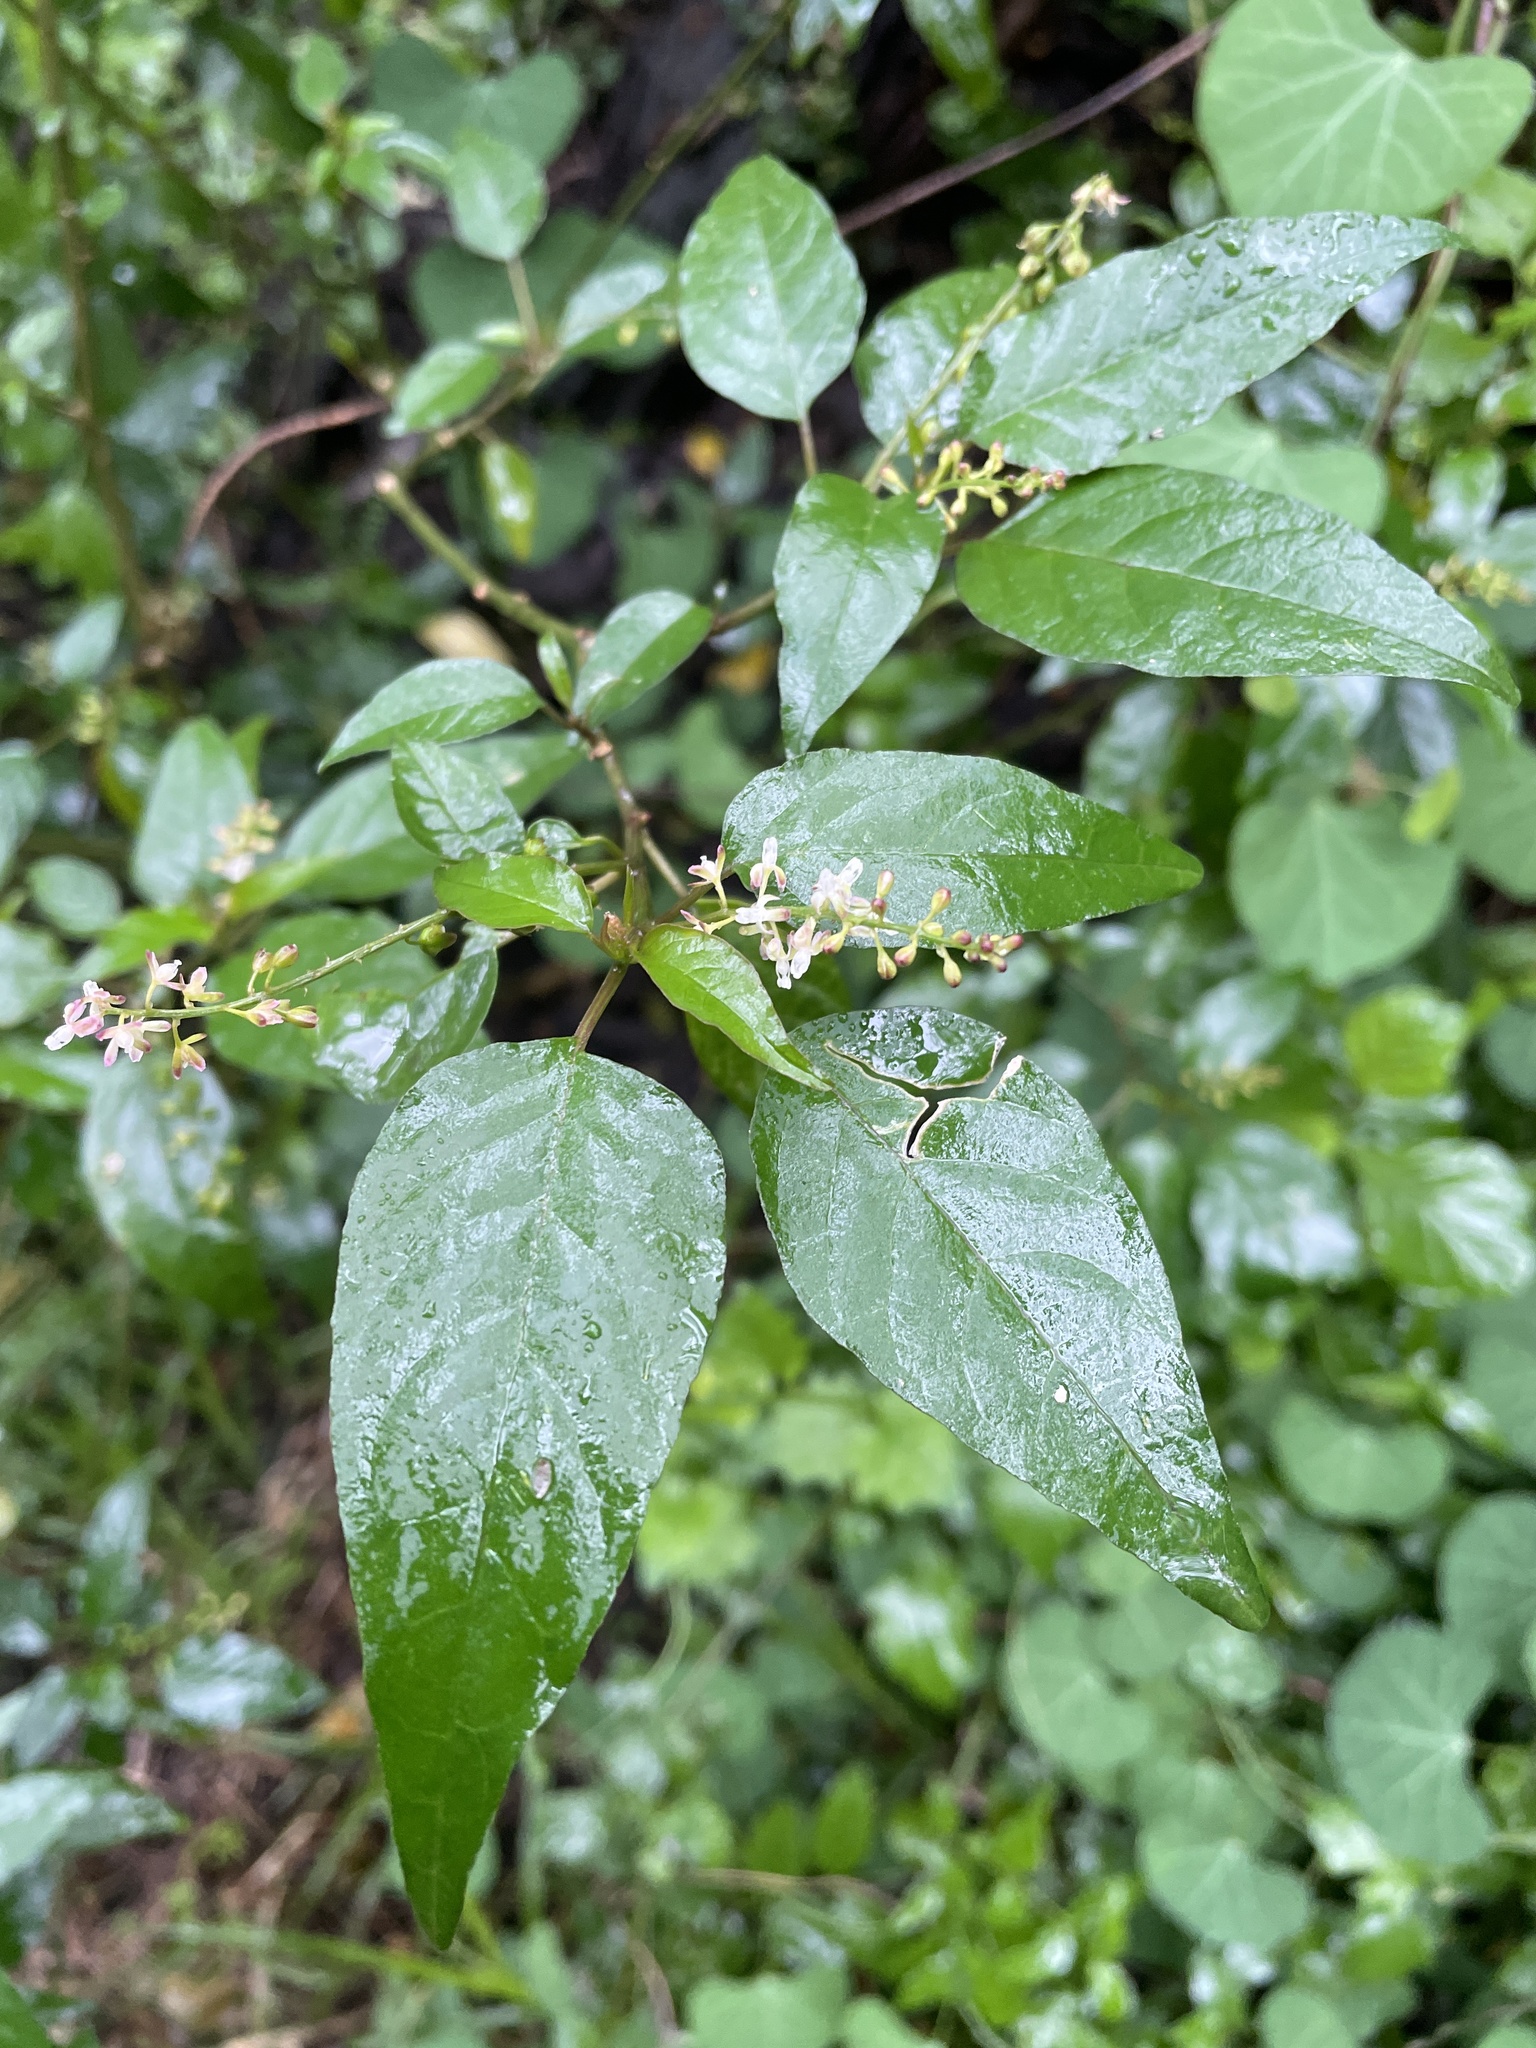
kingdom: Plantae
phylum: Tracheophyta
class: Magnoliopsida
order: Caryophyllales
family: Phytolaccaceae
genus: Rivina
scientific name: Rivina humilis
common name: Rougeplant
